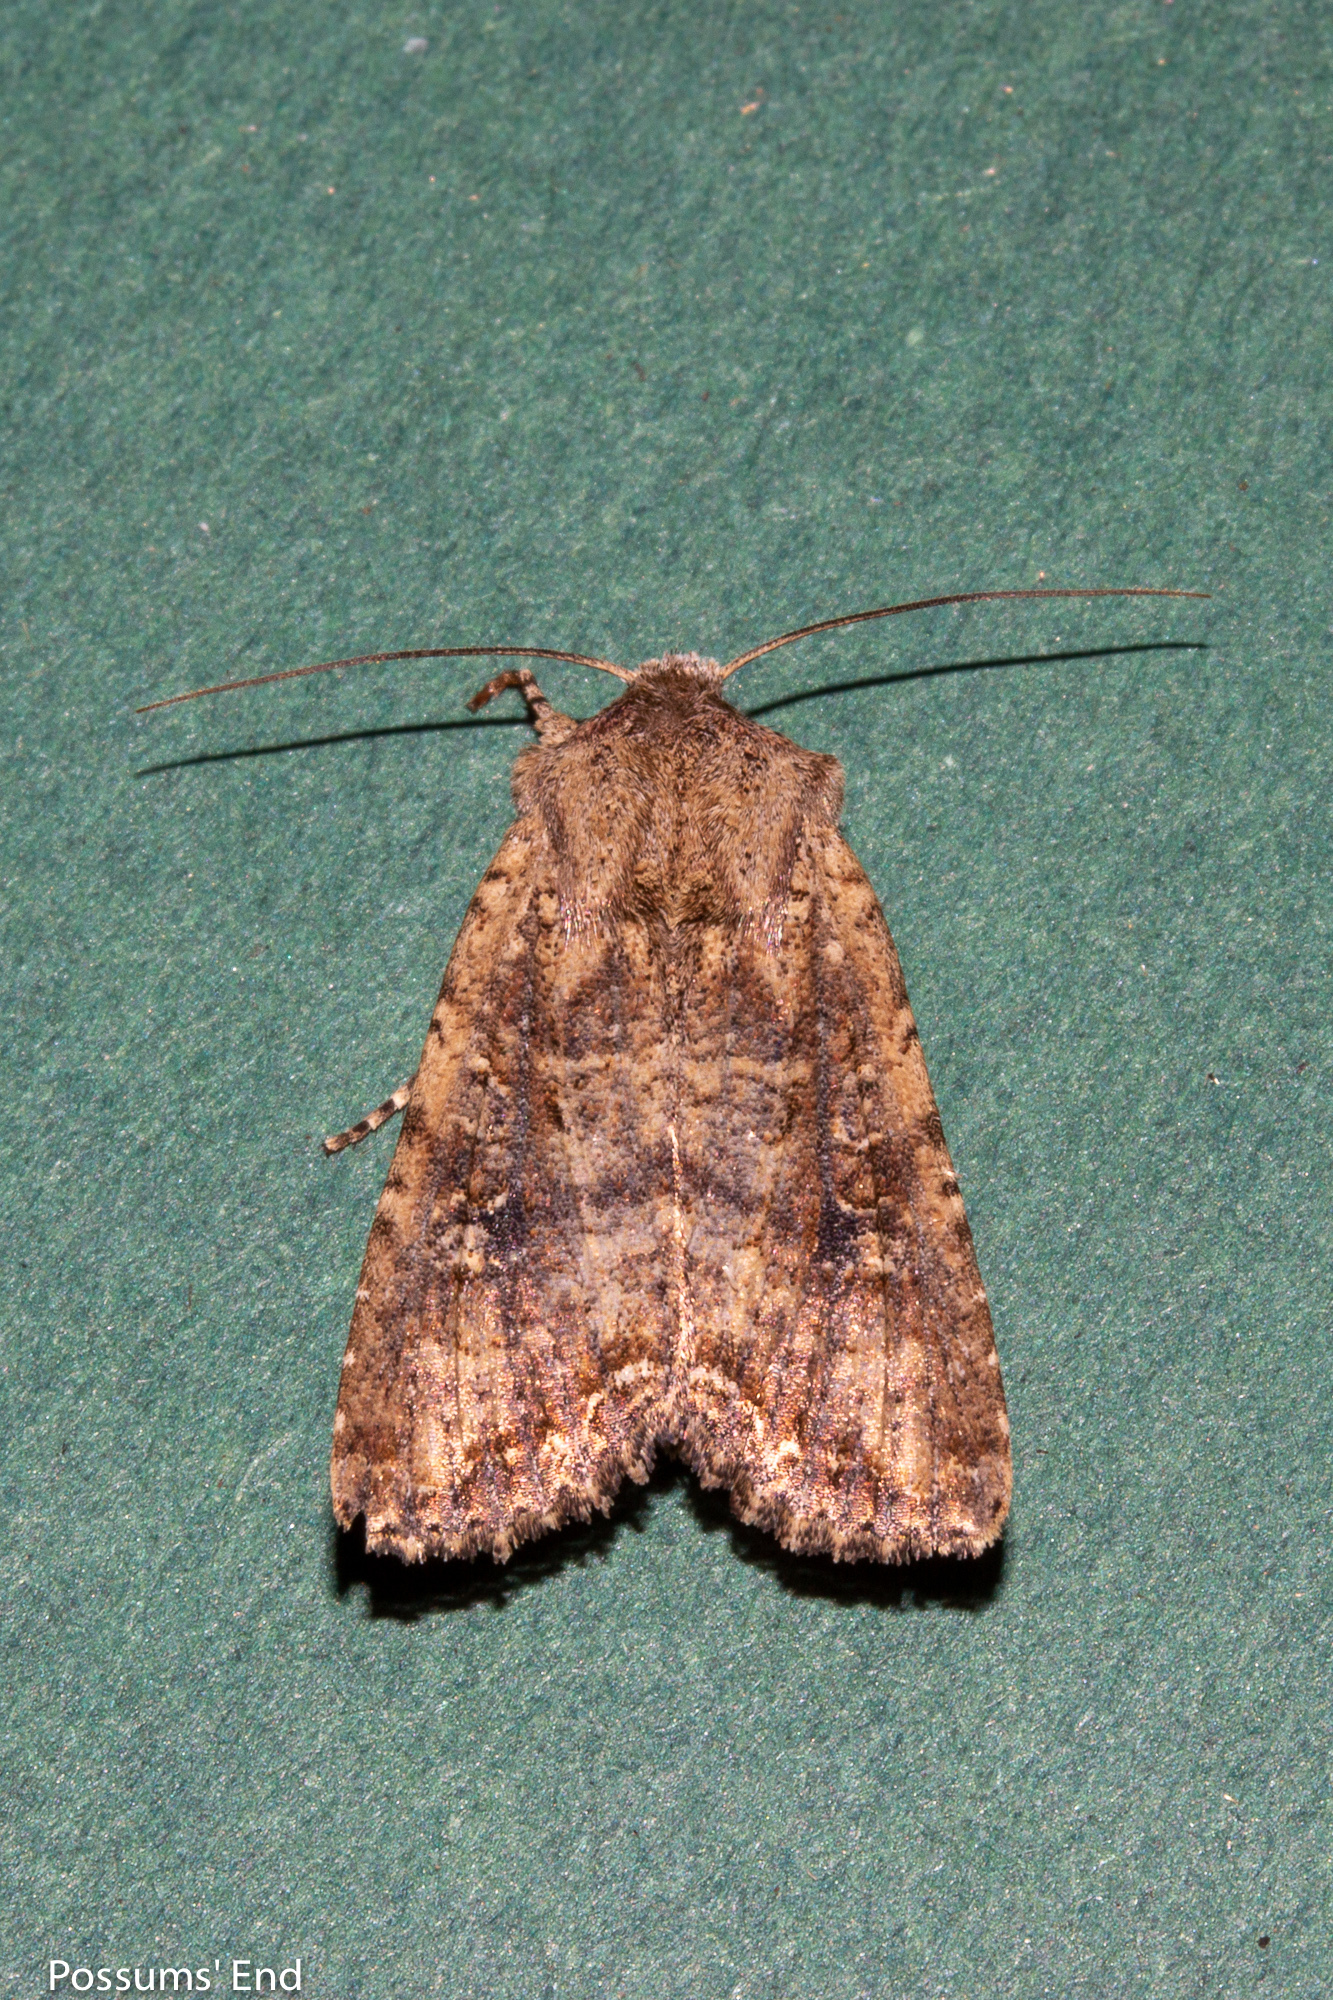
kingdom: Animalia
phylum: Arthropoda
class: Insecta
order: Lepidoptera
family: Noctuidae
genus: Ichneutica
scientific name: Ichneutica morosa
